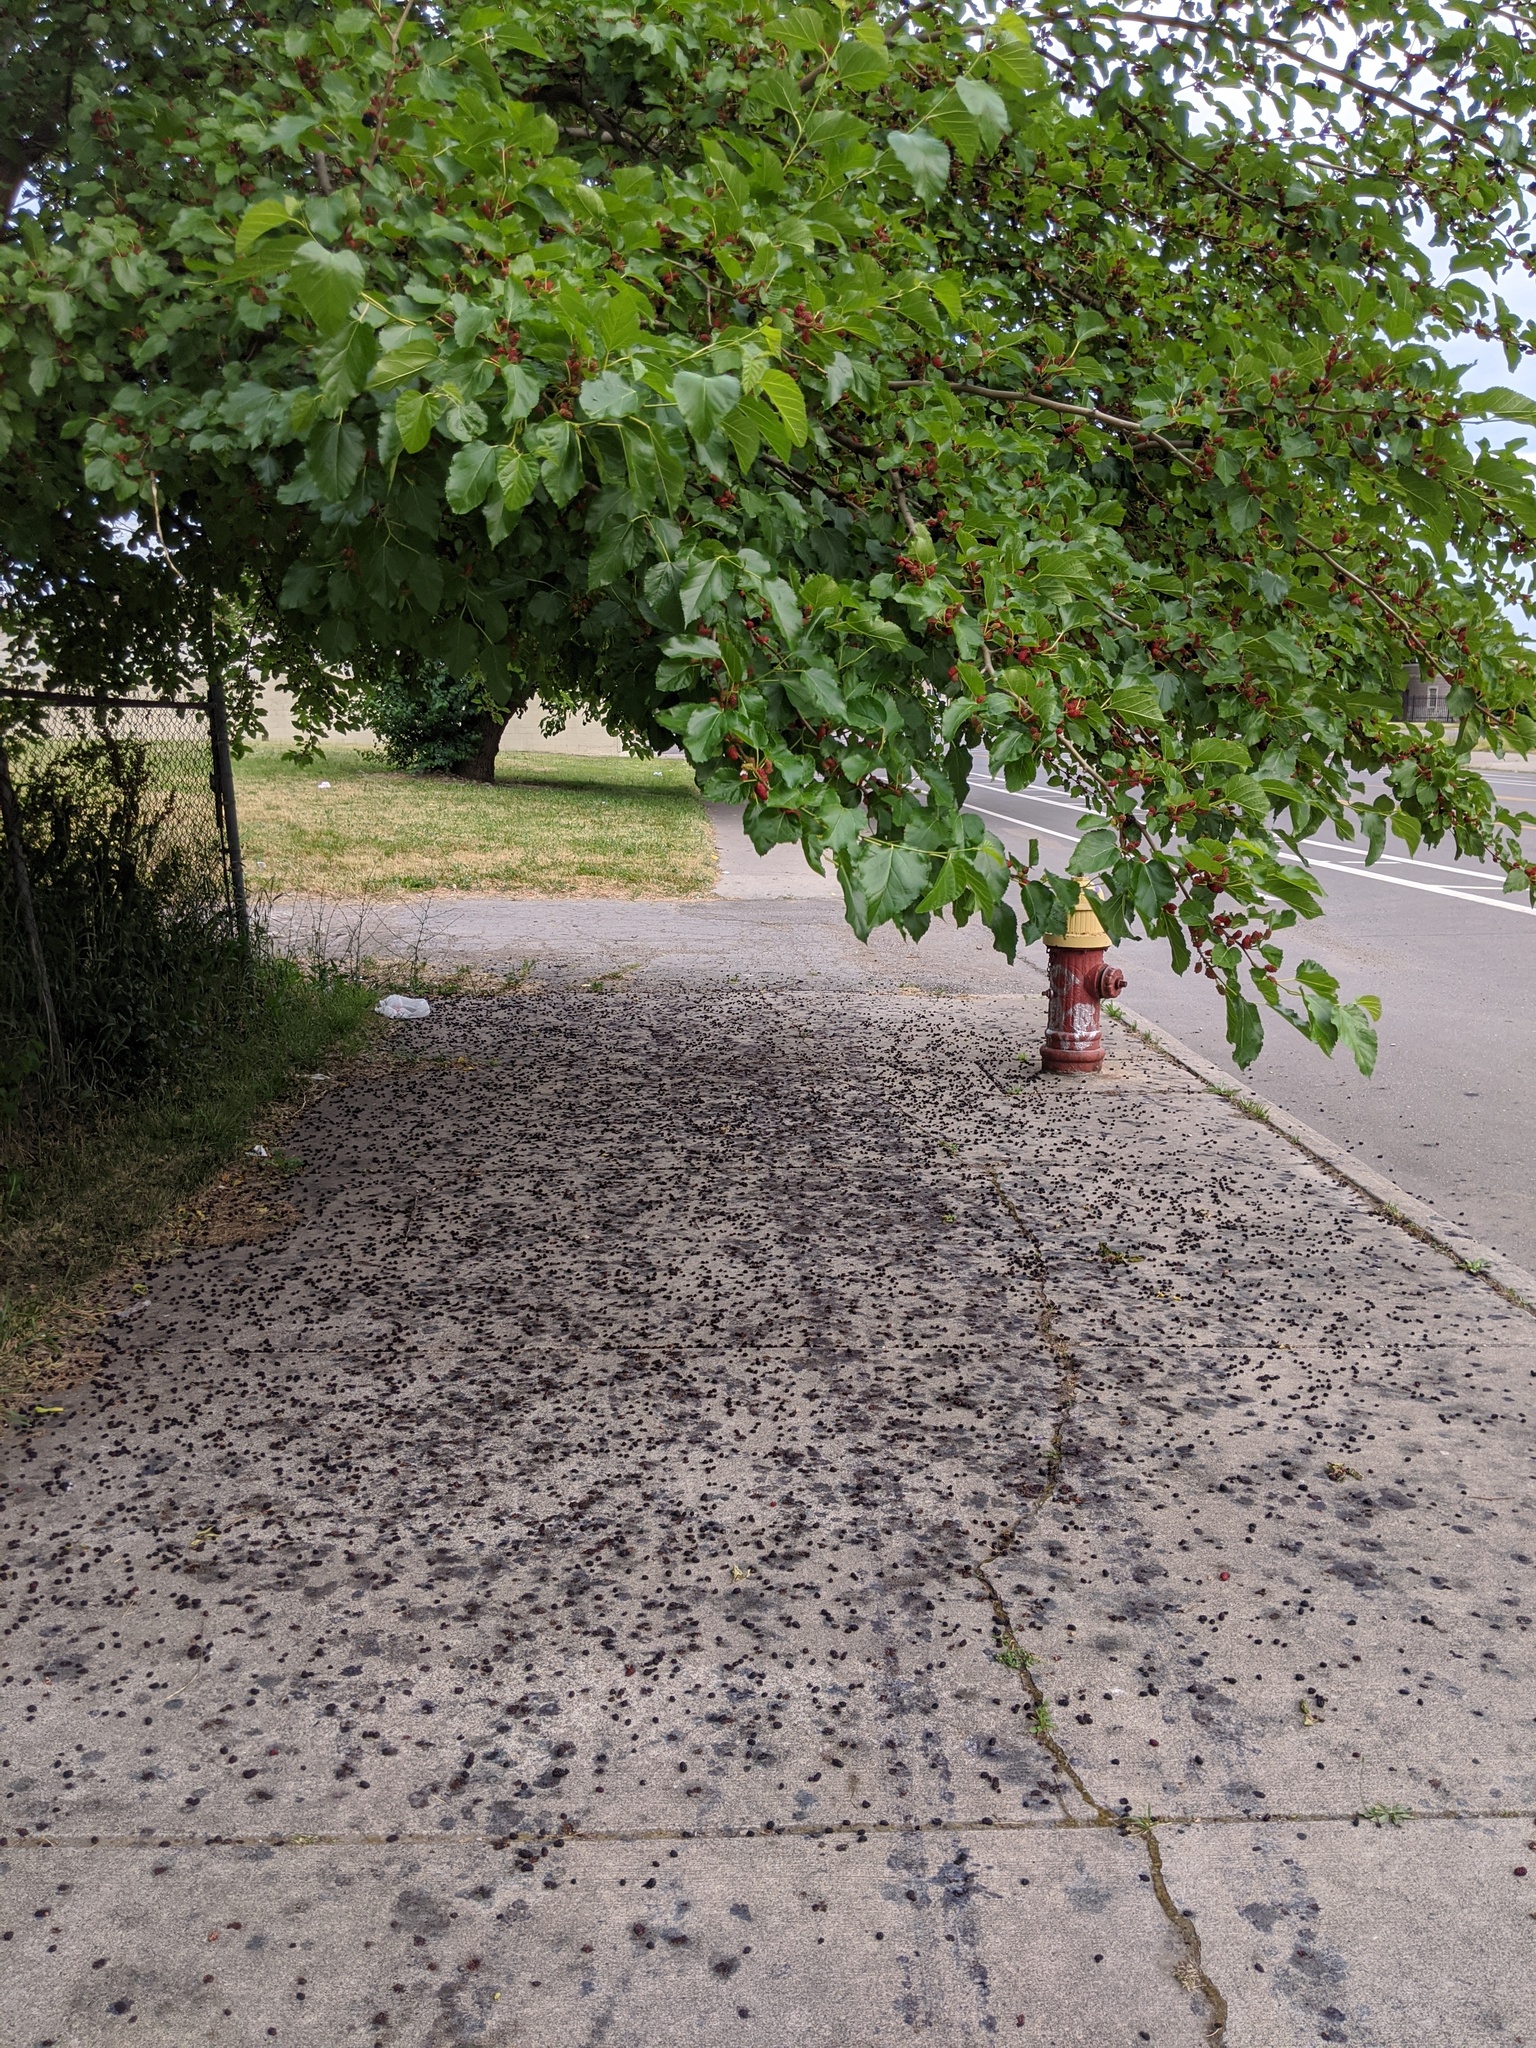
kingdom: Plantae
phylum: Tracheophyta
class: Magnoliopsida
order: Rosales
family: Moraceae
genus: Morus
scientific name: Morus alba
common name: White mulberry
